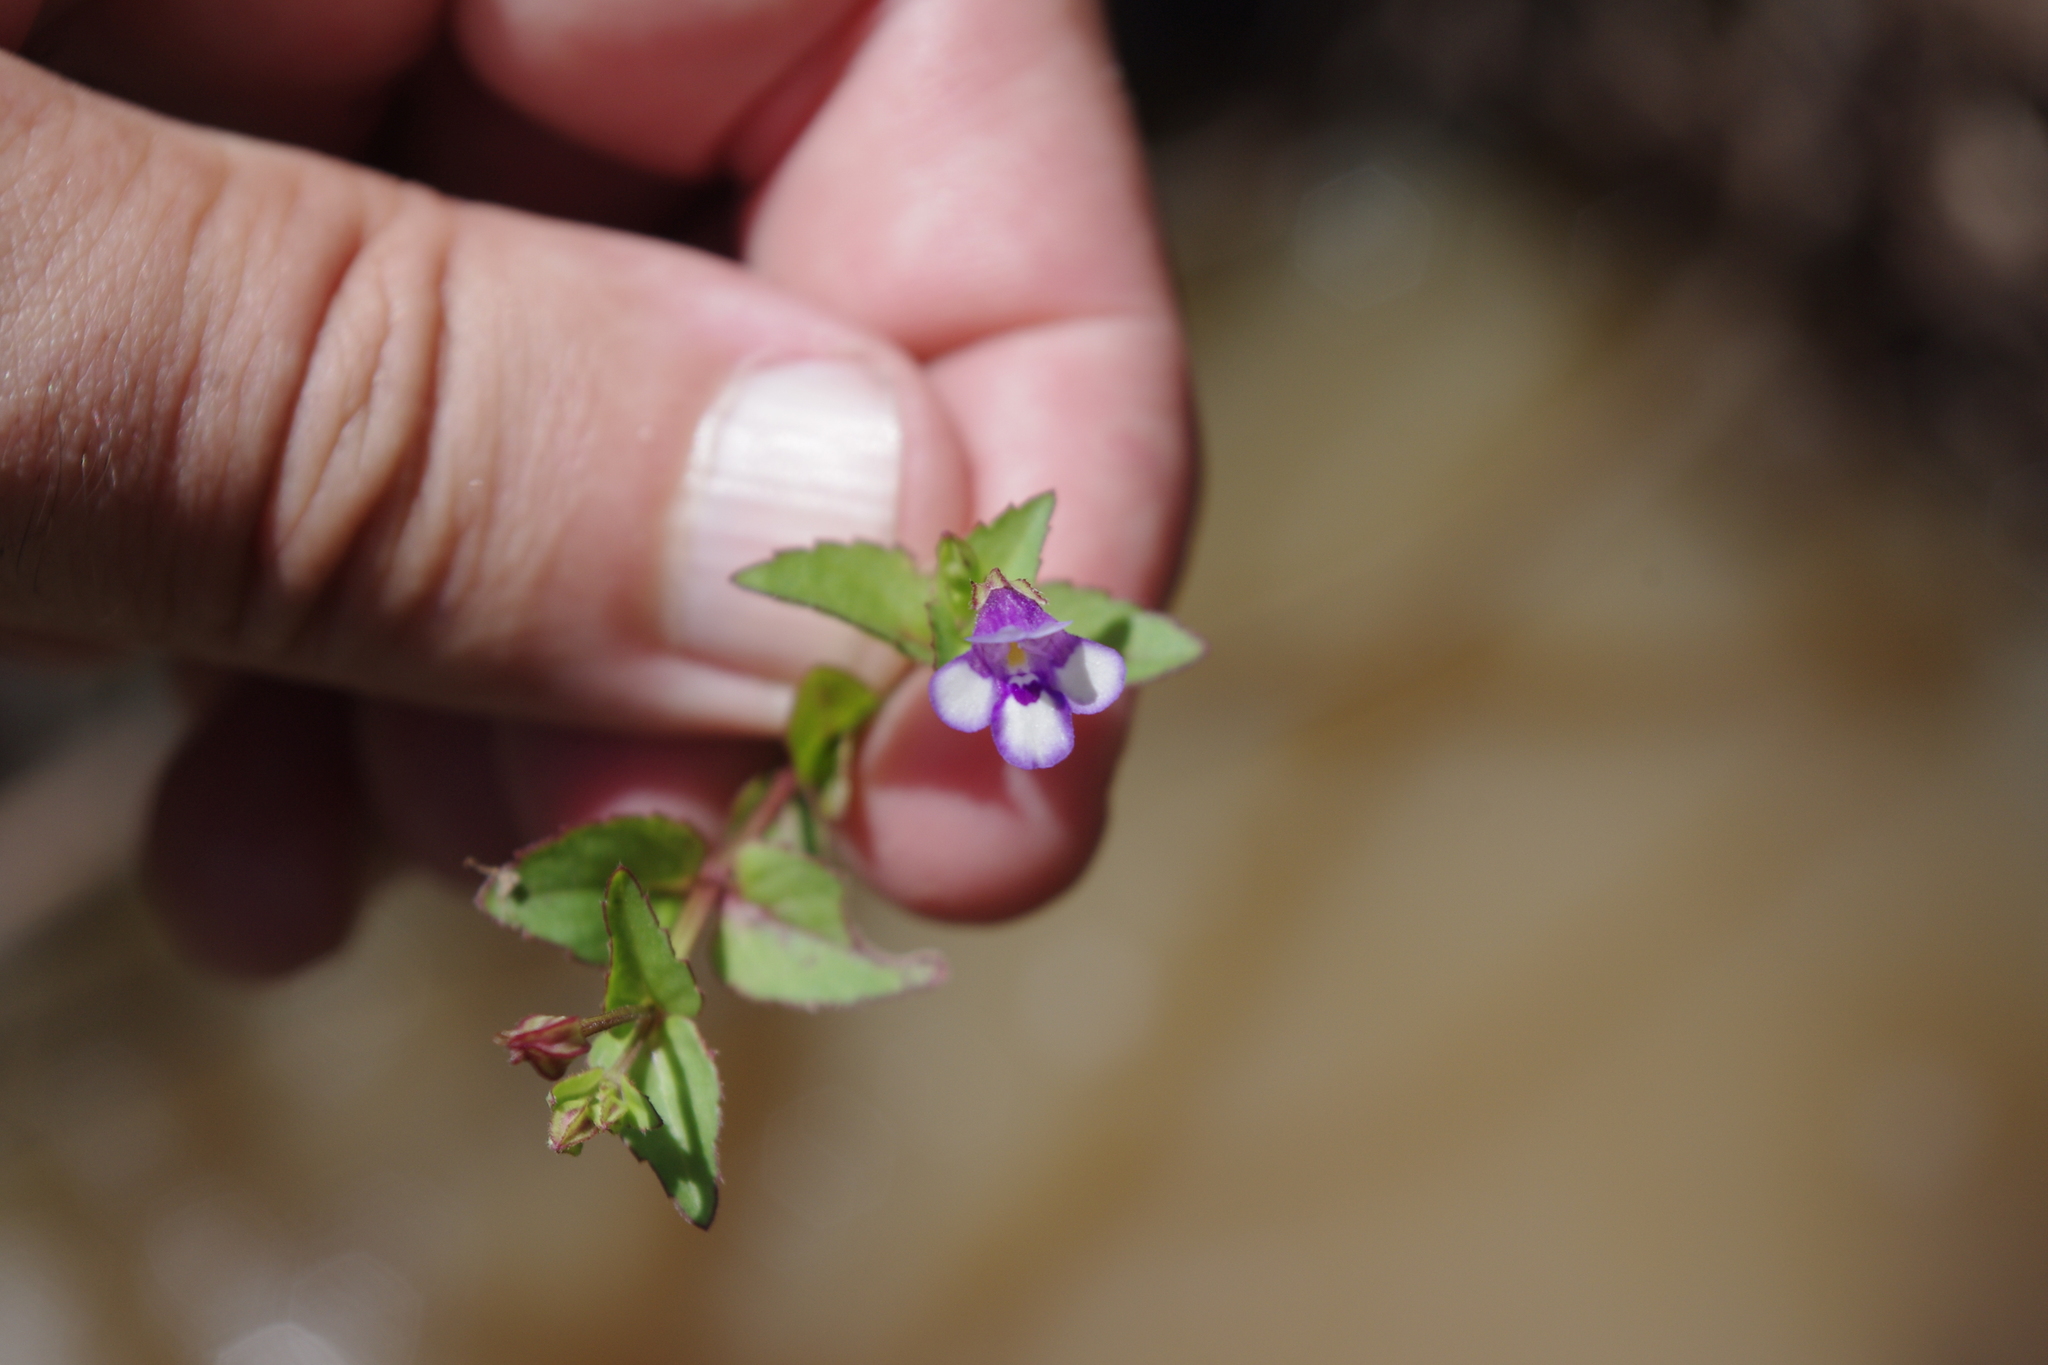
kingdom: Plantae
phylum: Tracheophyta
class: Magnoliopsida
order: Lamiales
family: Linderniaceae
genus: Torenia
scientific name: Torenia crustacea
